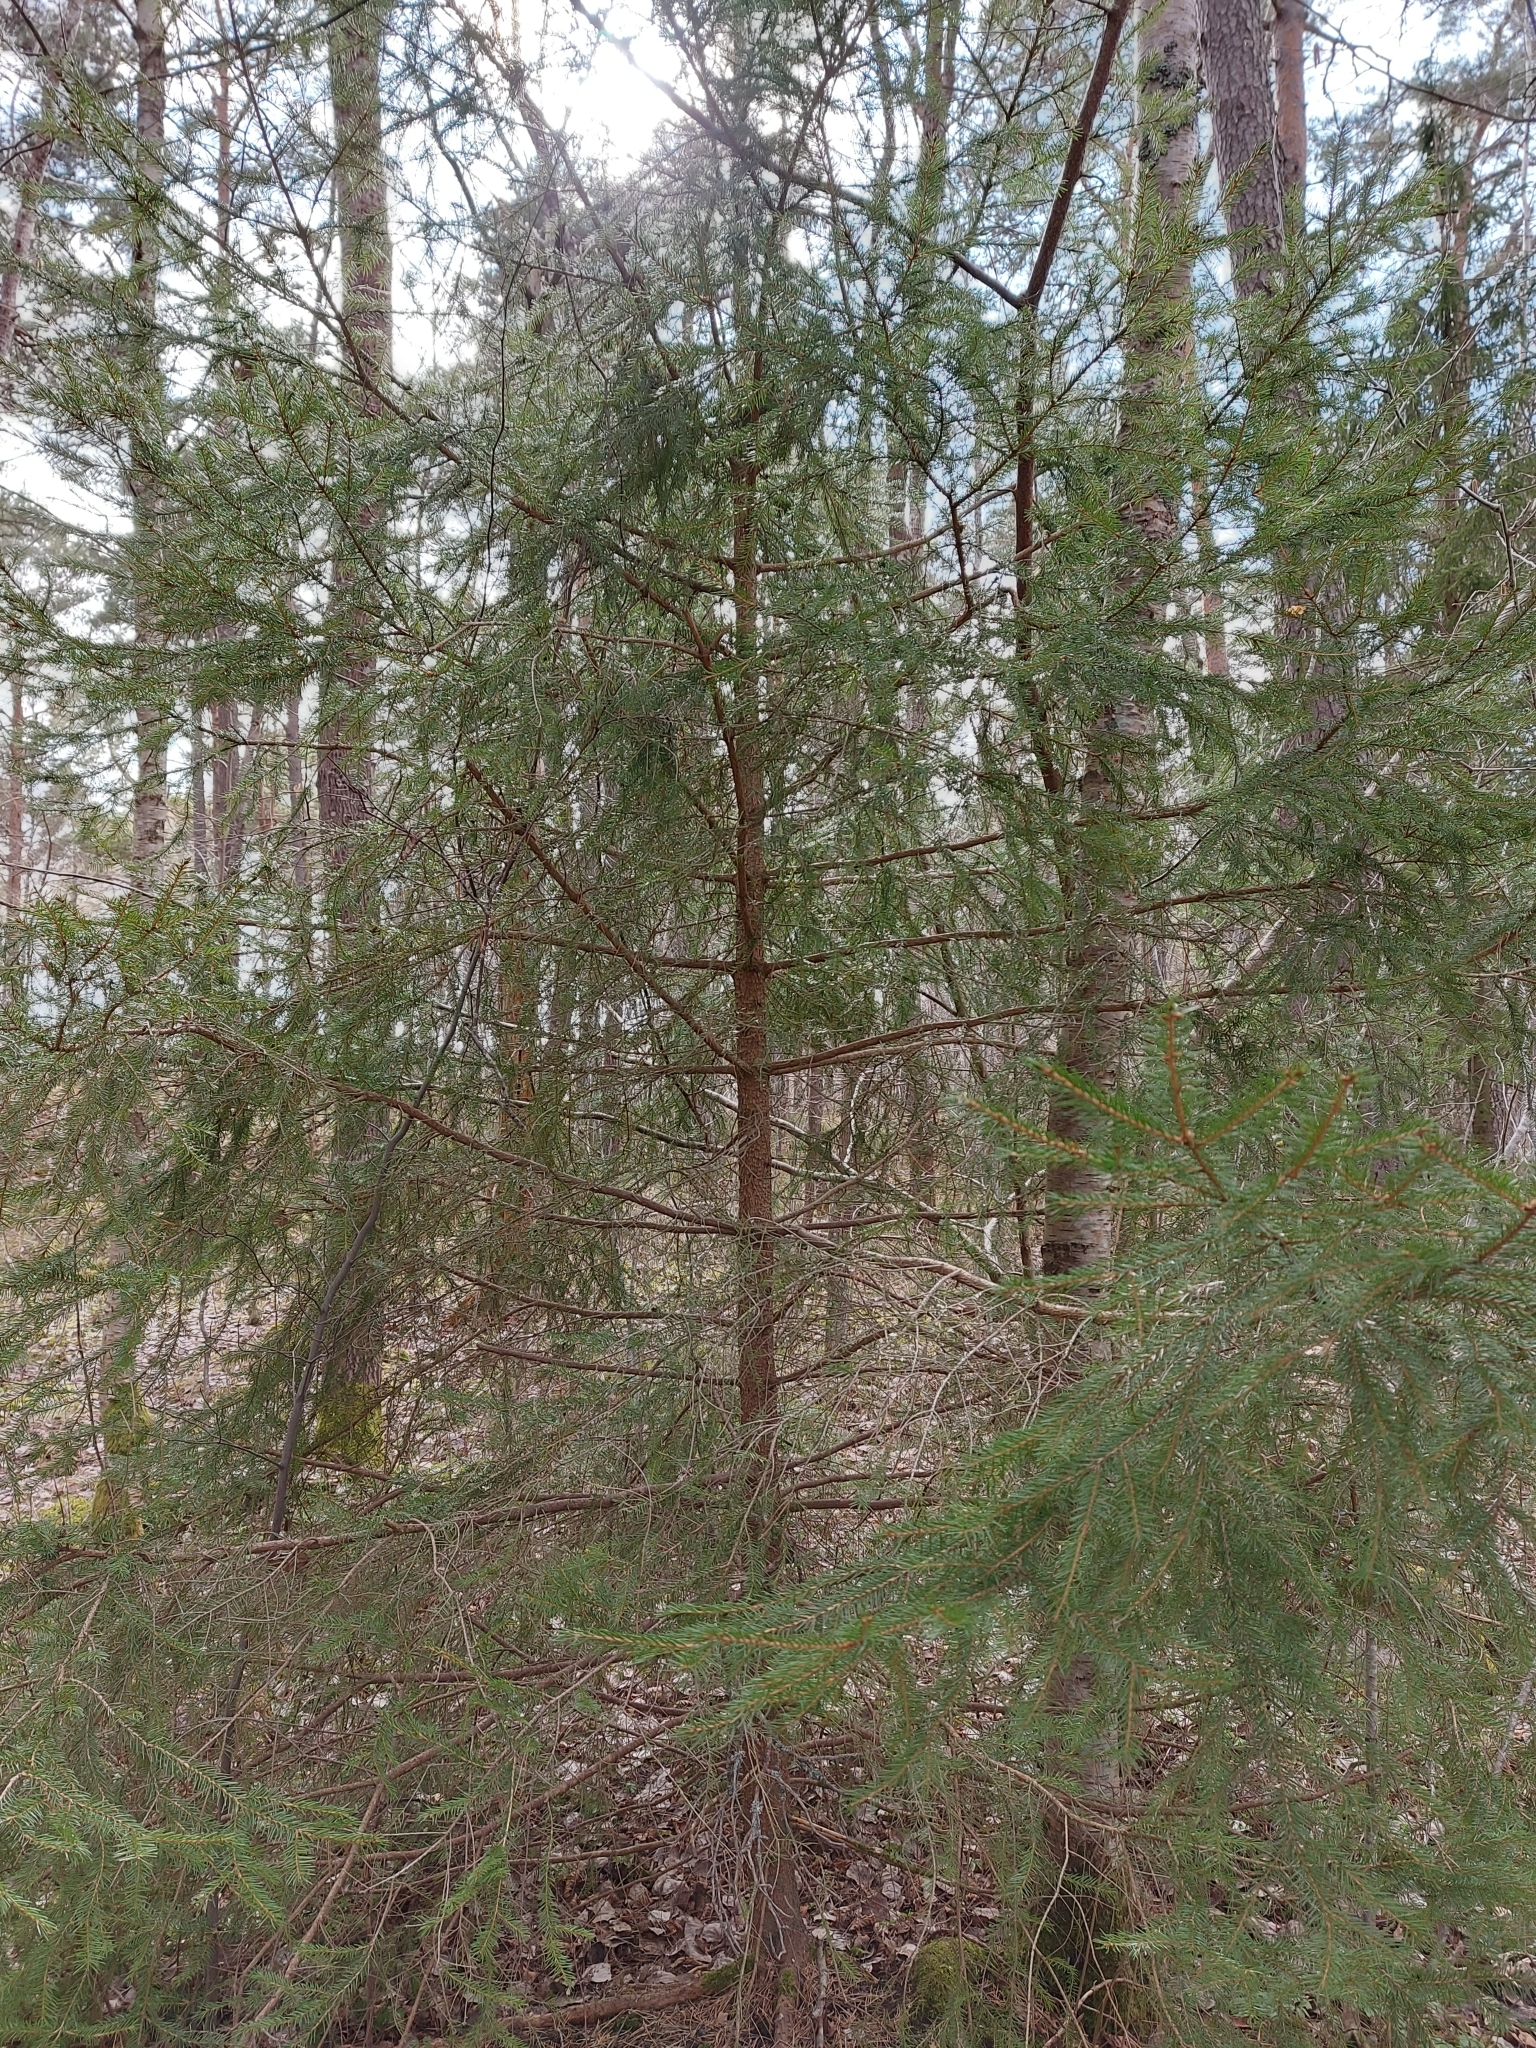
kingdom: Plantae
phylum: Tracheophyta
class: Pinopsida
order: Pinales
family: Pinaceae
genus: Picea
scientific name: Picea abies
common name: Norway spruce
